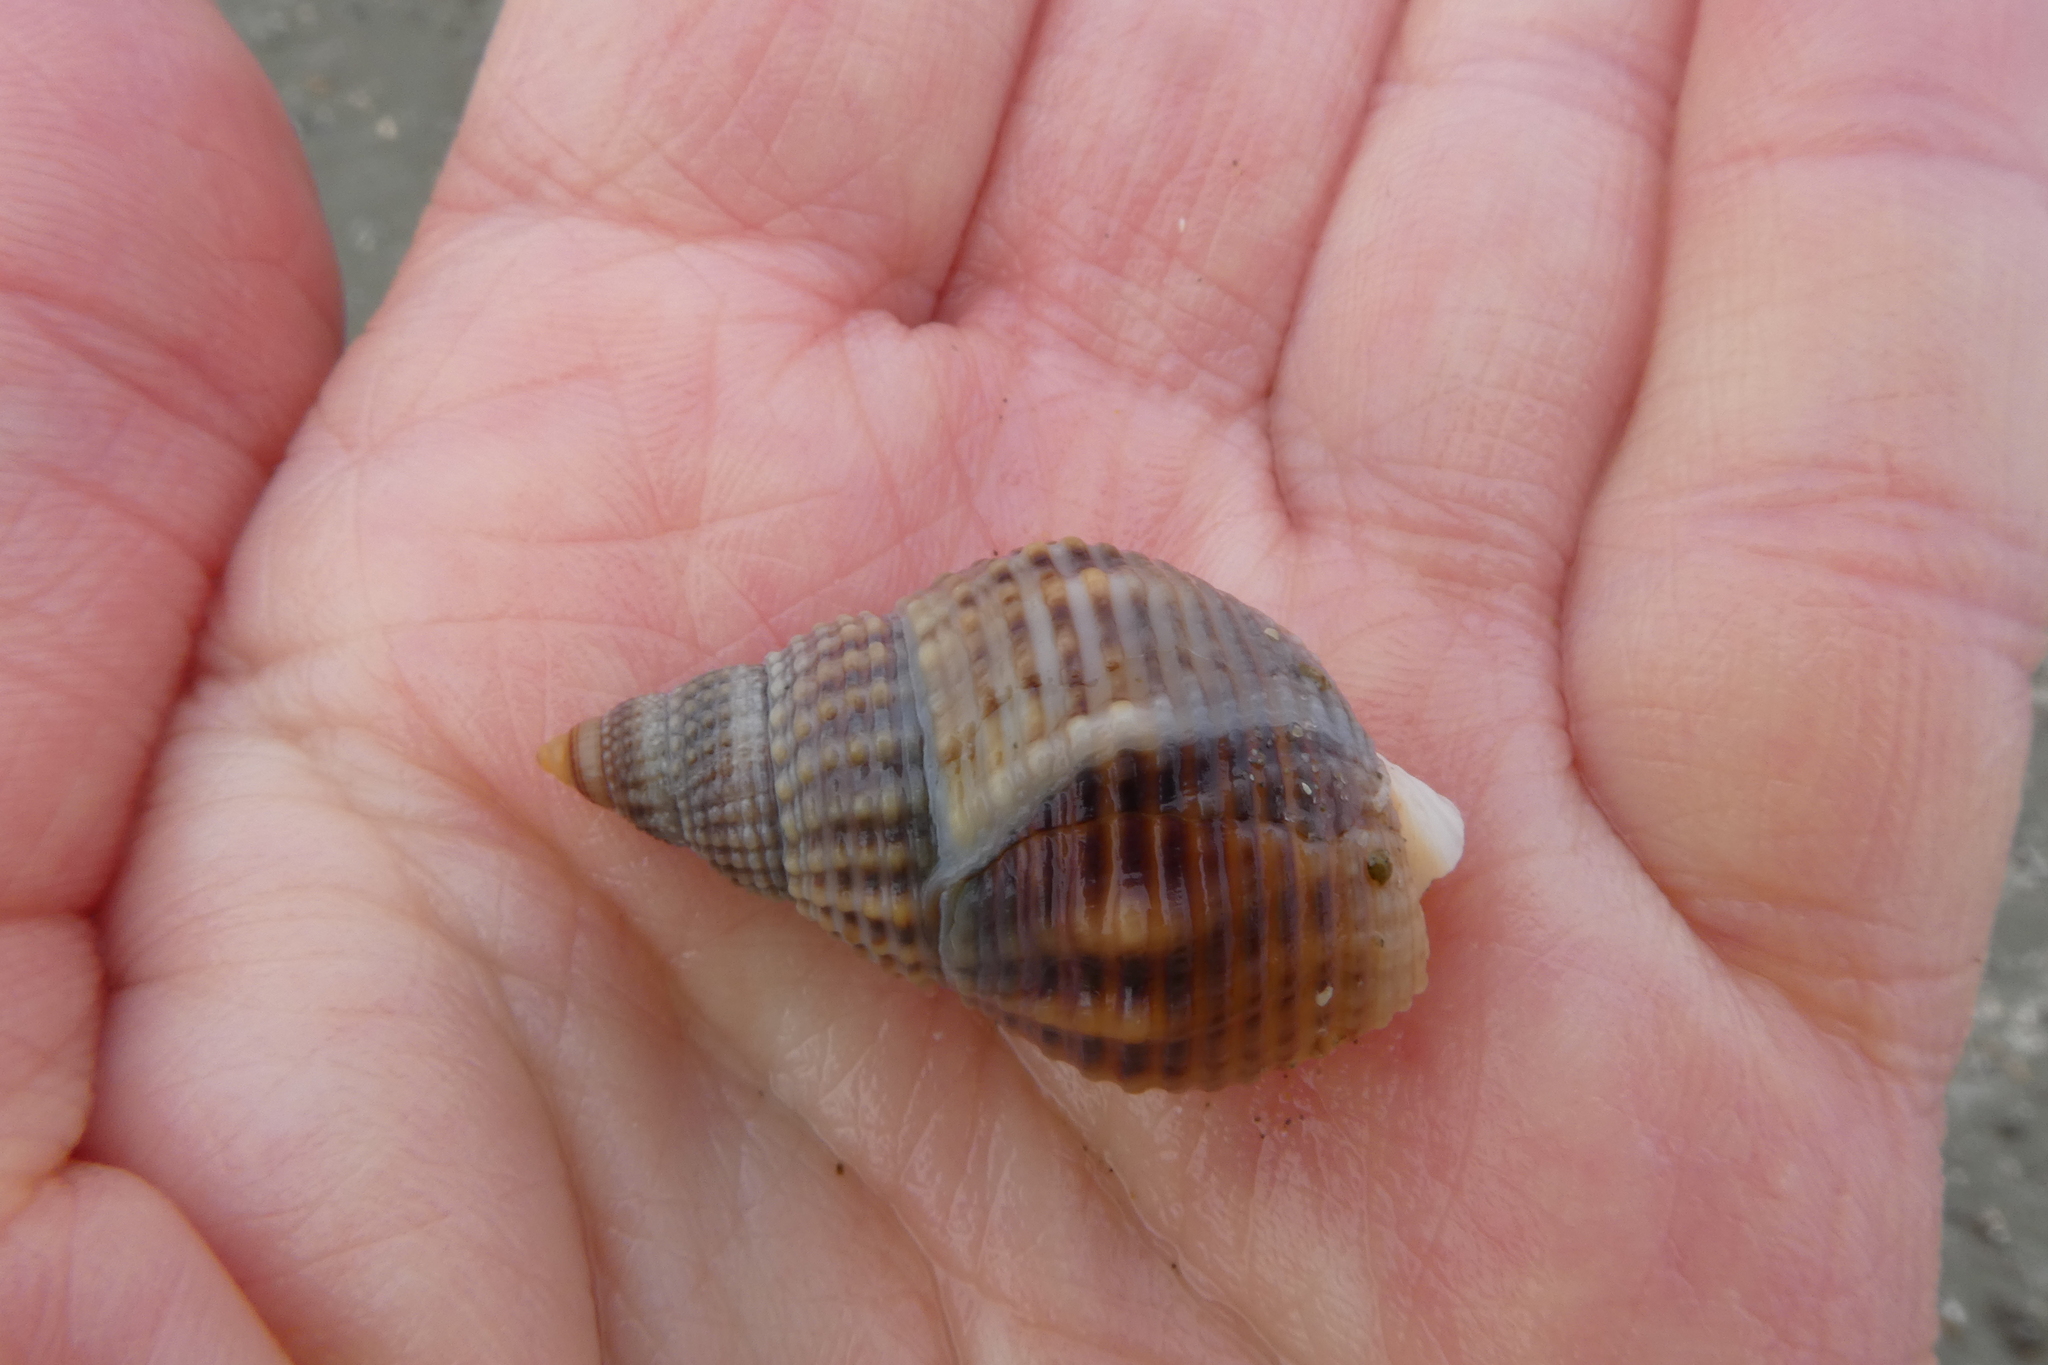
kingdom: Animalia
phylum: Mollusca
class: Gastropoda
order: Neogastropoda
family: Nassariidae
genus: Caesia
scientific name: Caesia fossata
